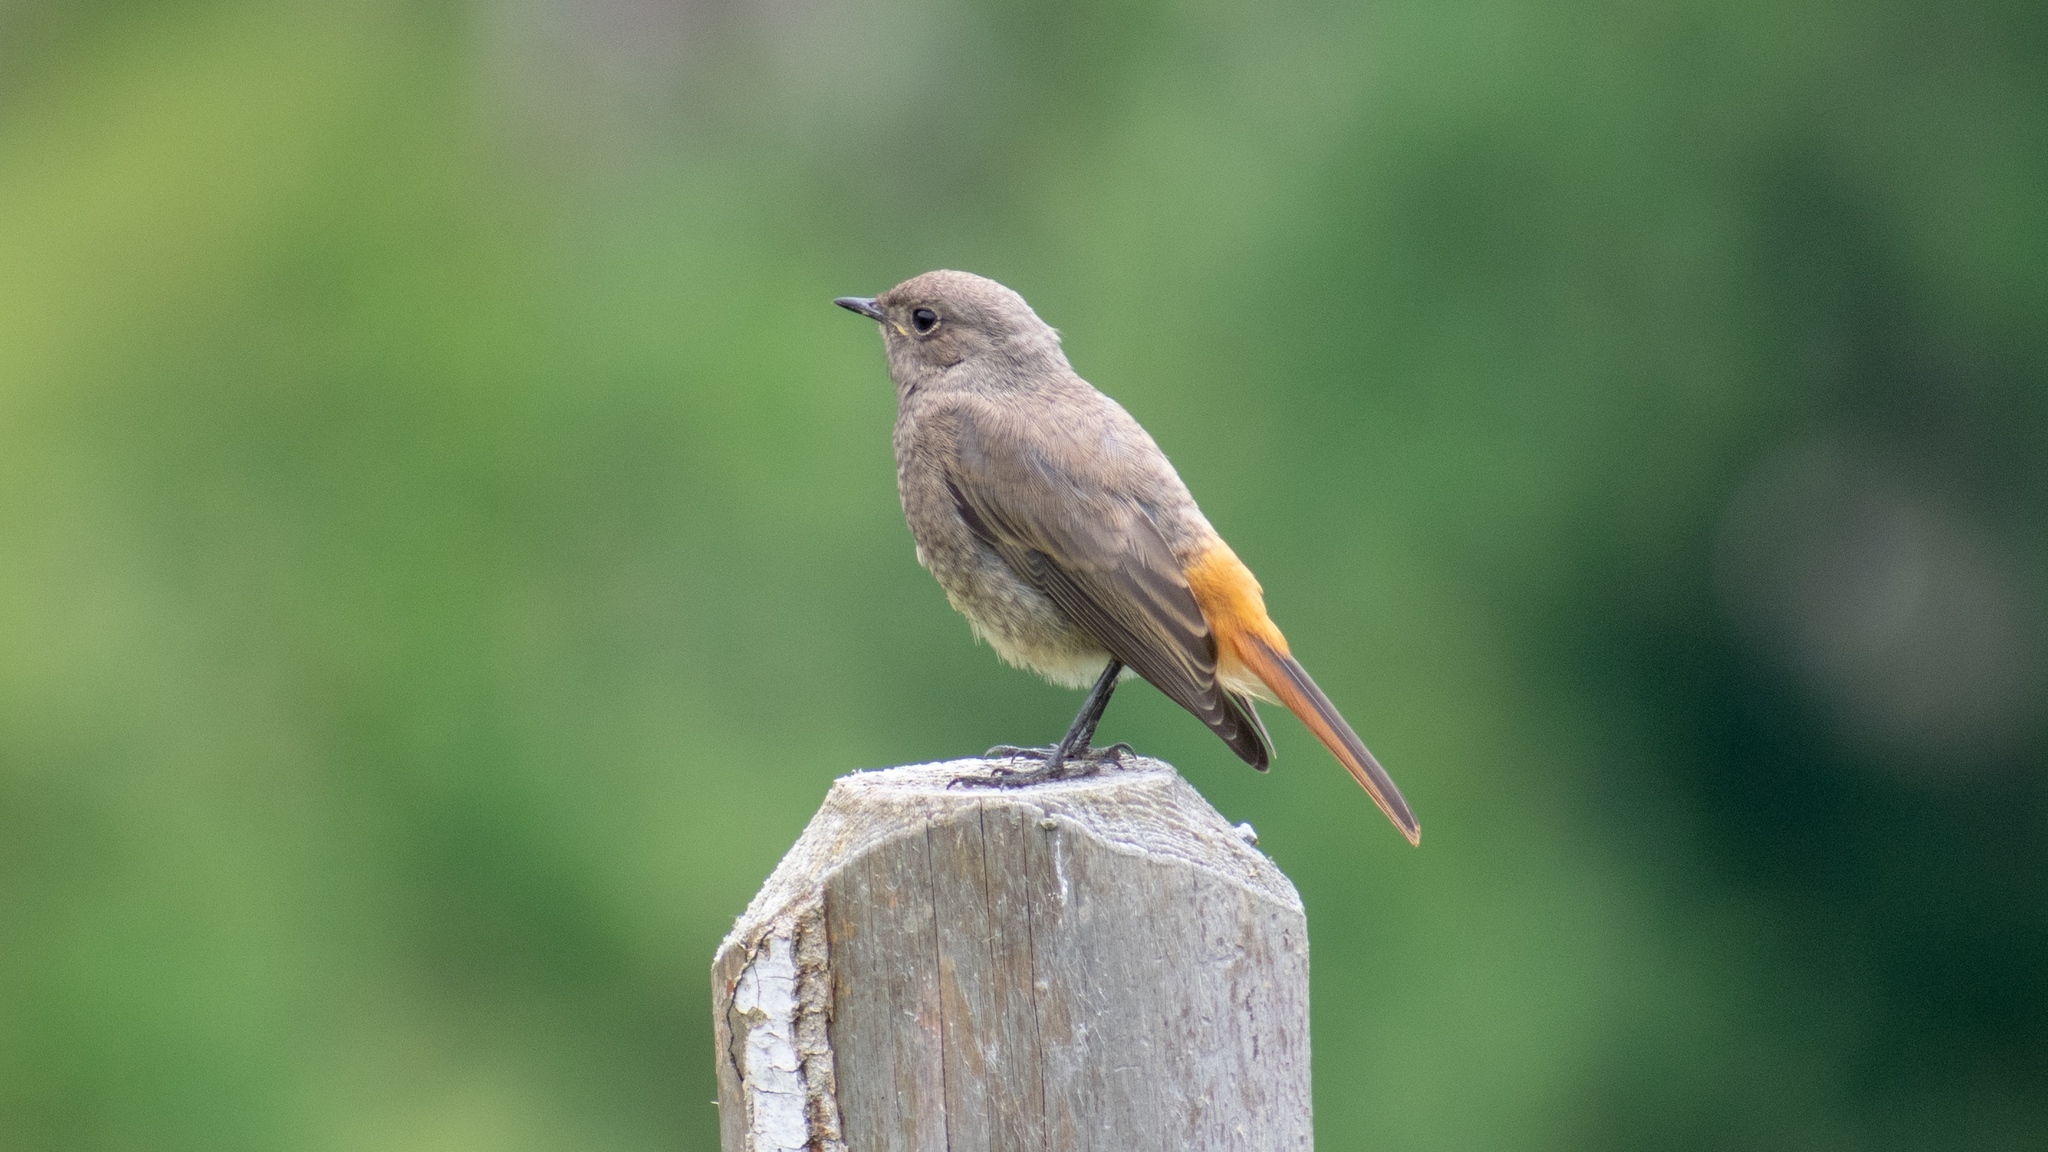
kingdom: Animalia
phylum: Chordata
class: Aves
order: Passeriformes
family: Muscicapidae
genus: Phoenicurus
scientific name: Phoenicurus ochruros
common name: Black redstart
